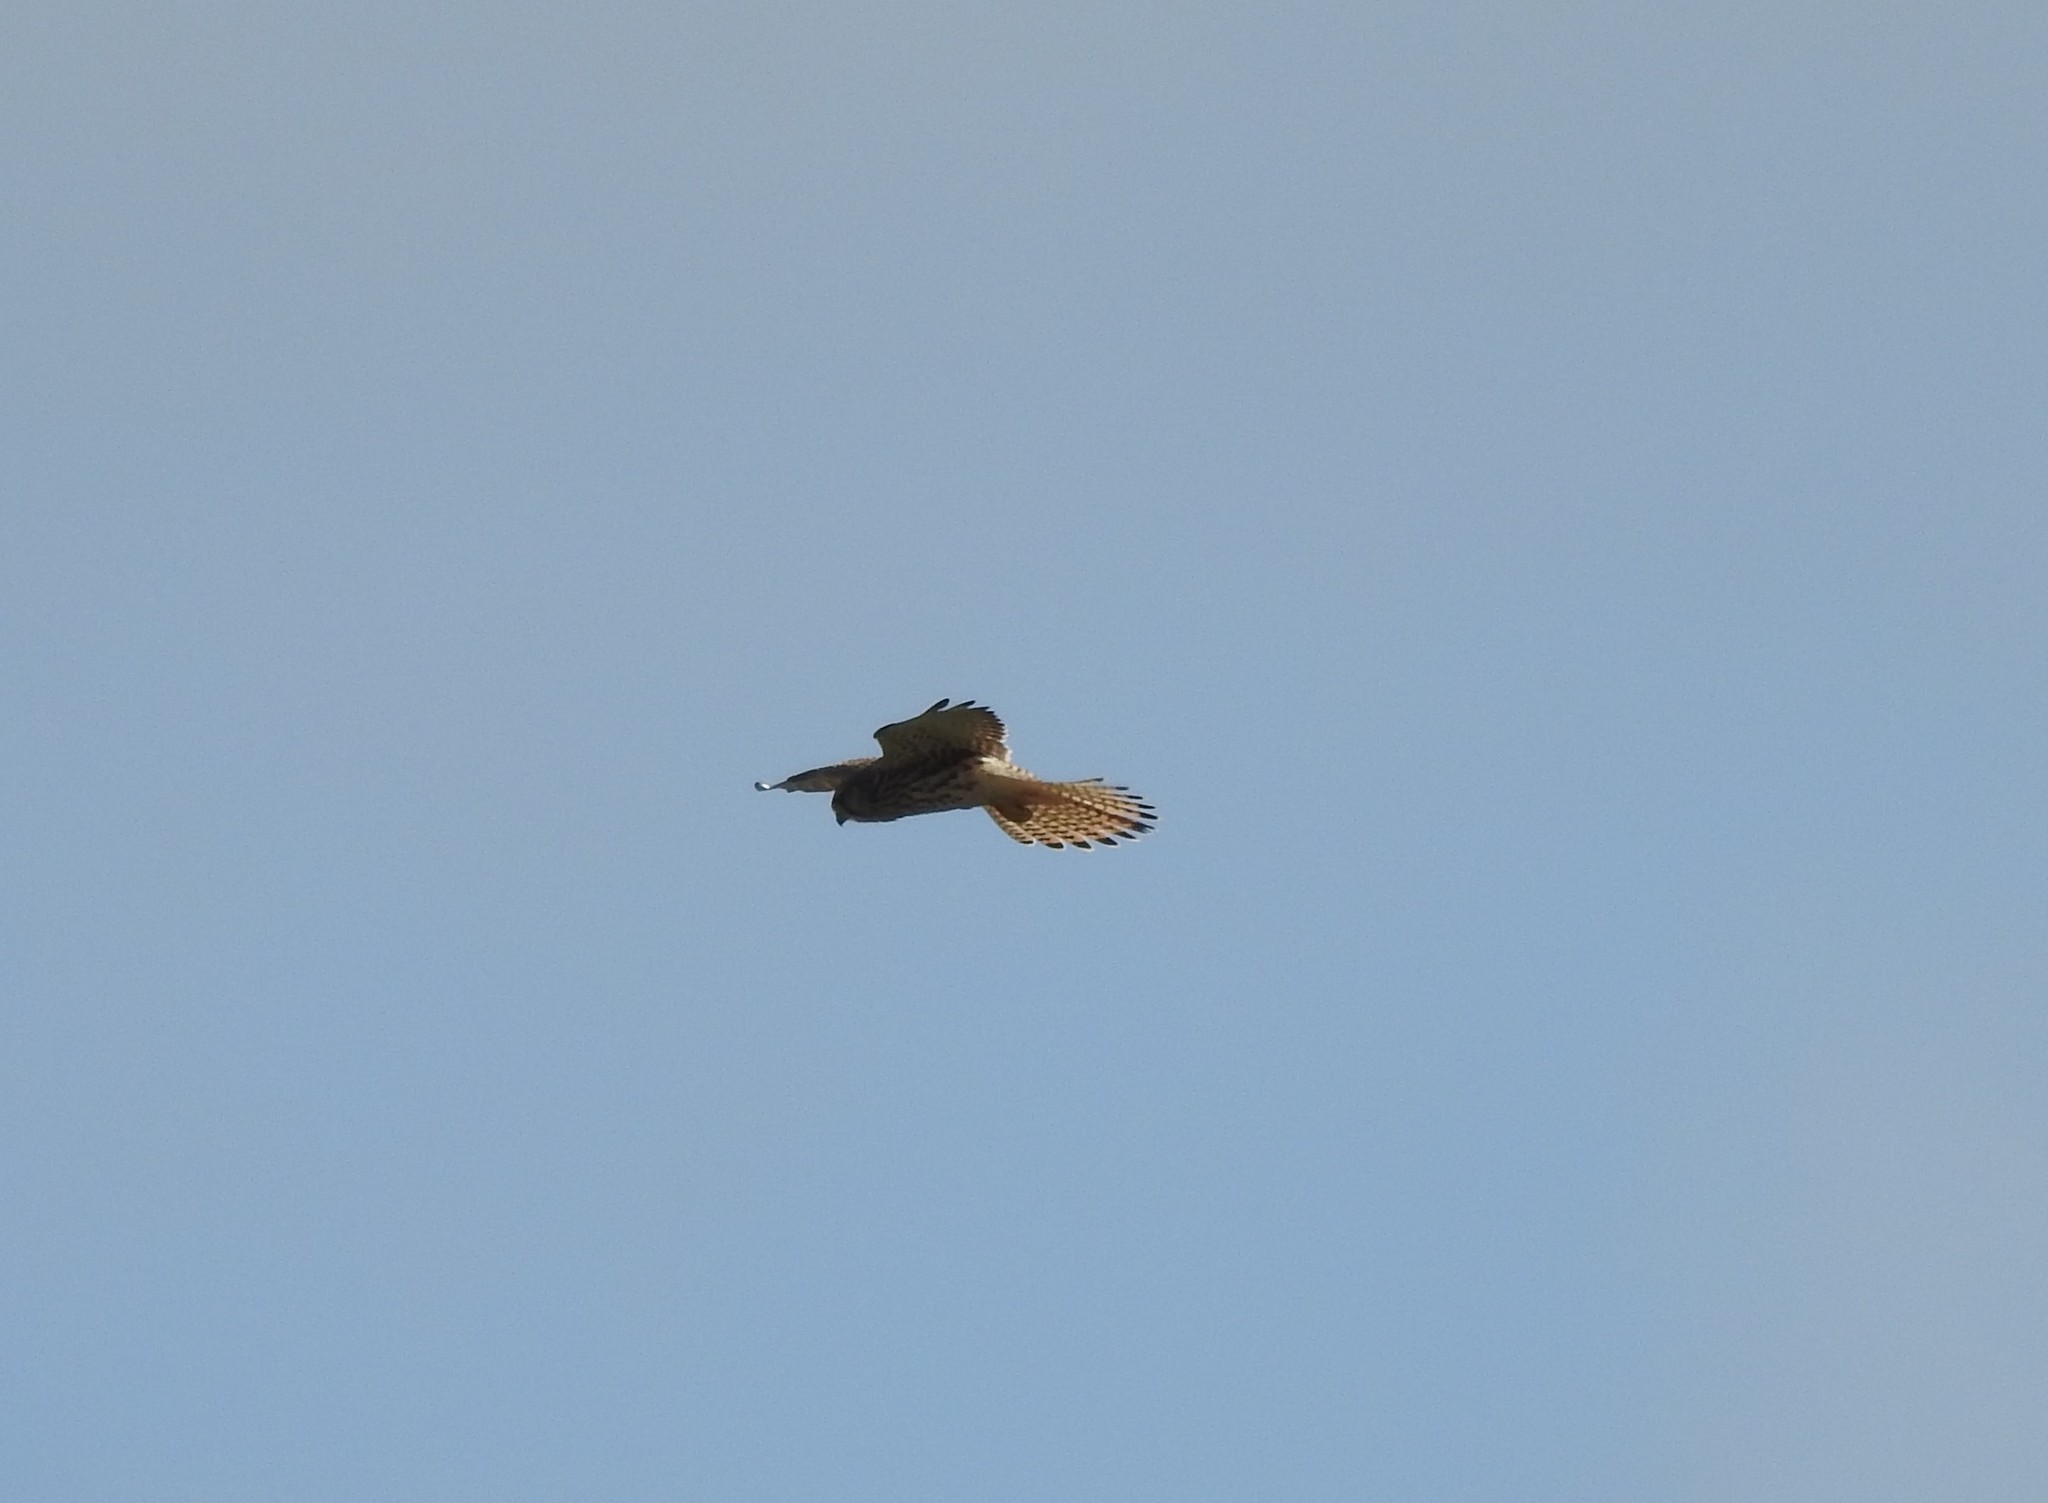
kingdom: Animalia
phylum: Chordata
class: Aves
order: Falconiformes
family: Falconidae
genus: Falco
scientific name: Falco tinnunculus
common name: Common kestrel
